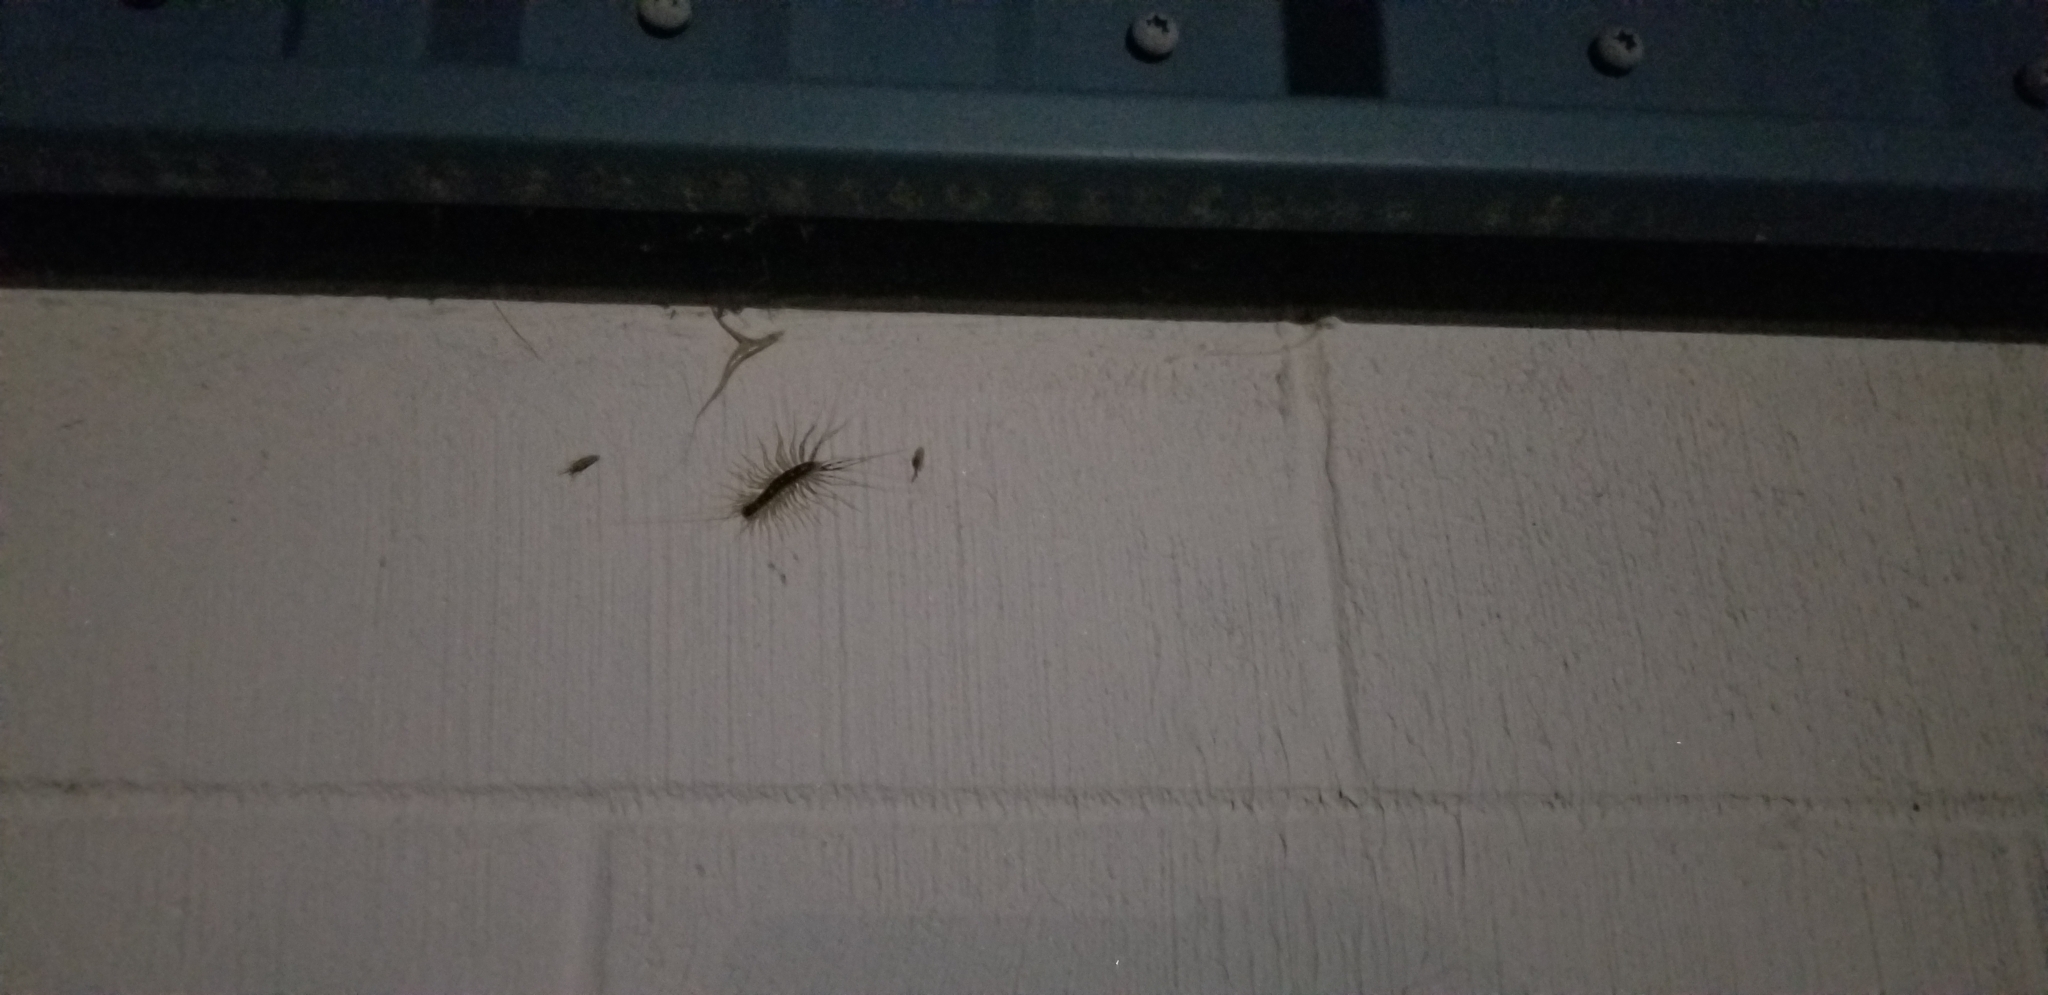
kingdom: Animalia
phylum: Arthropoda
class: Chilopoda
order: Scutigeromorpha
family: Scutigeridae
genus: Scutigera
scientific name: Scutigera coleoptrata
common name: House centipede
